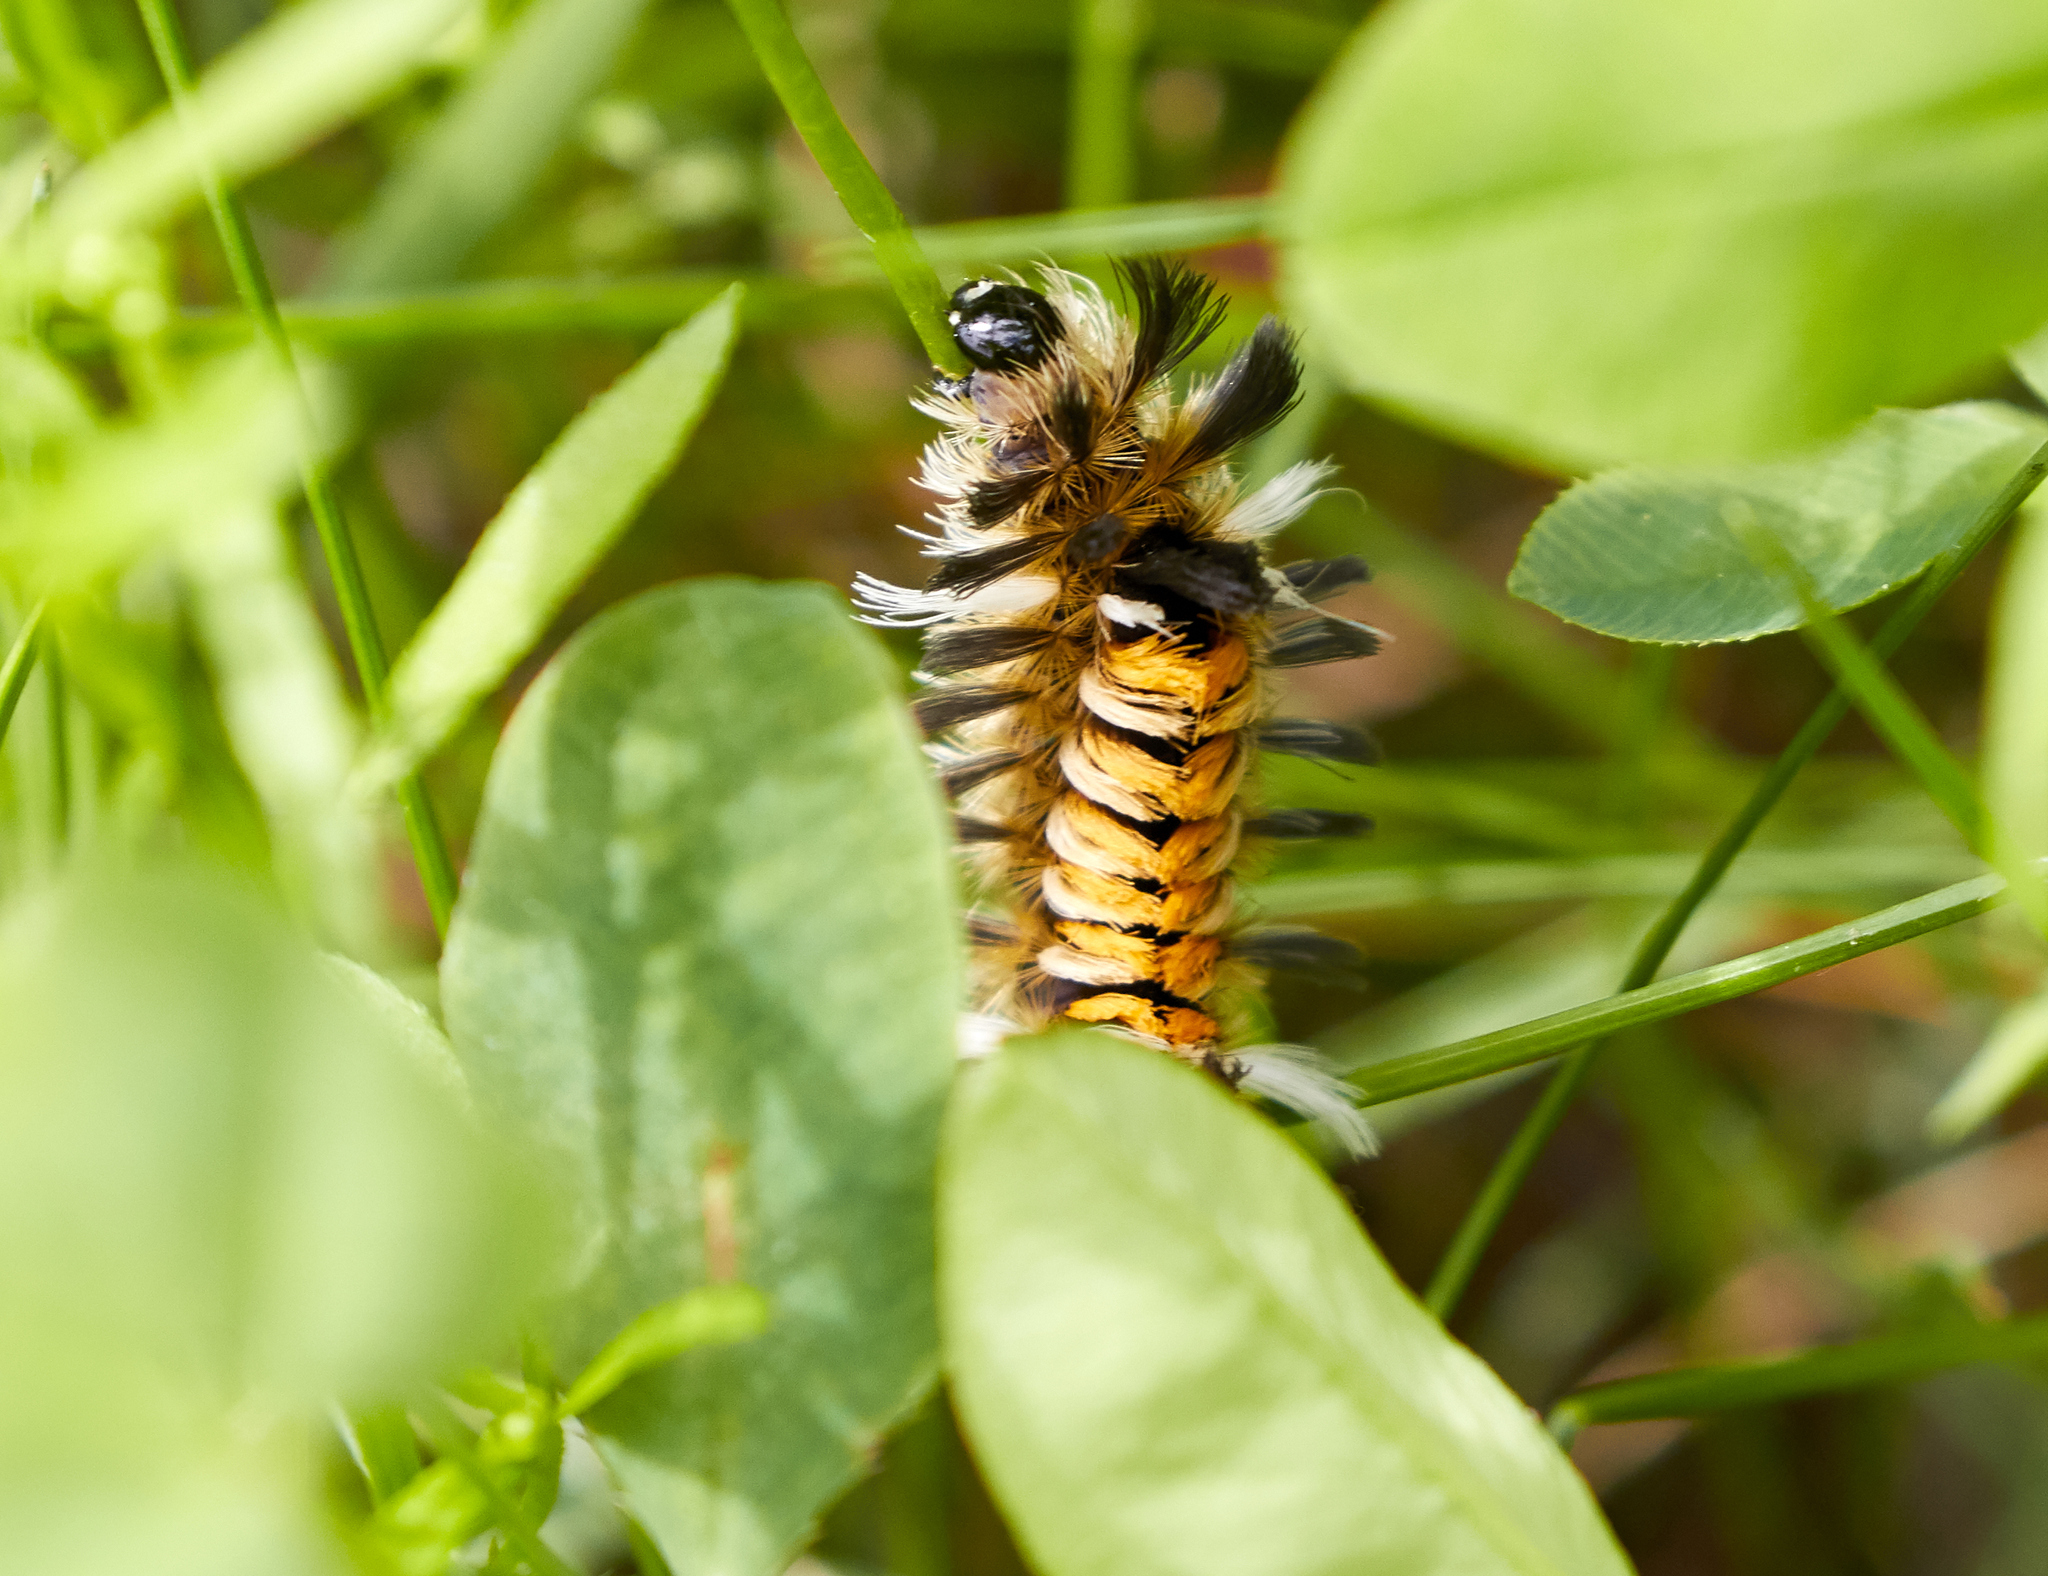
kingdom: Animalia
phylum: Arthropoda
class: Insecta
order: Lepidoptera
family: Erebidae
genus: Euchaetes
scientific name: Euchaetes egle
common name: Milkweed tussock moth
